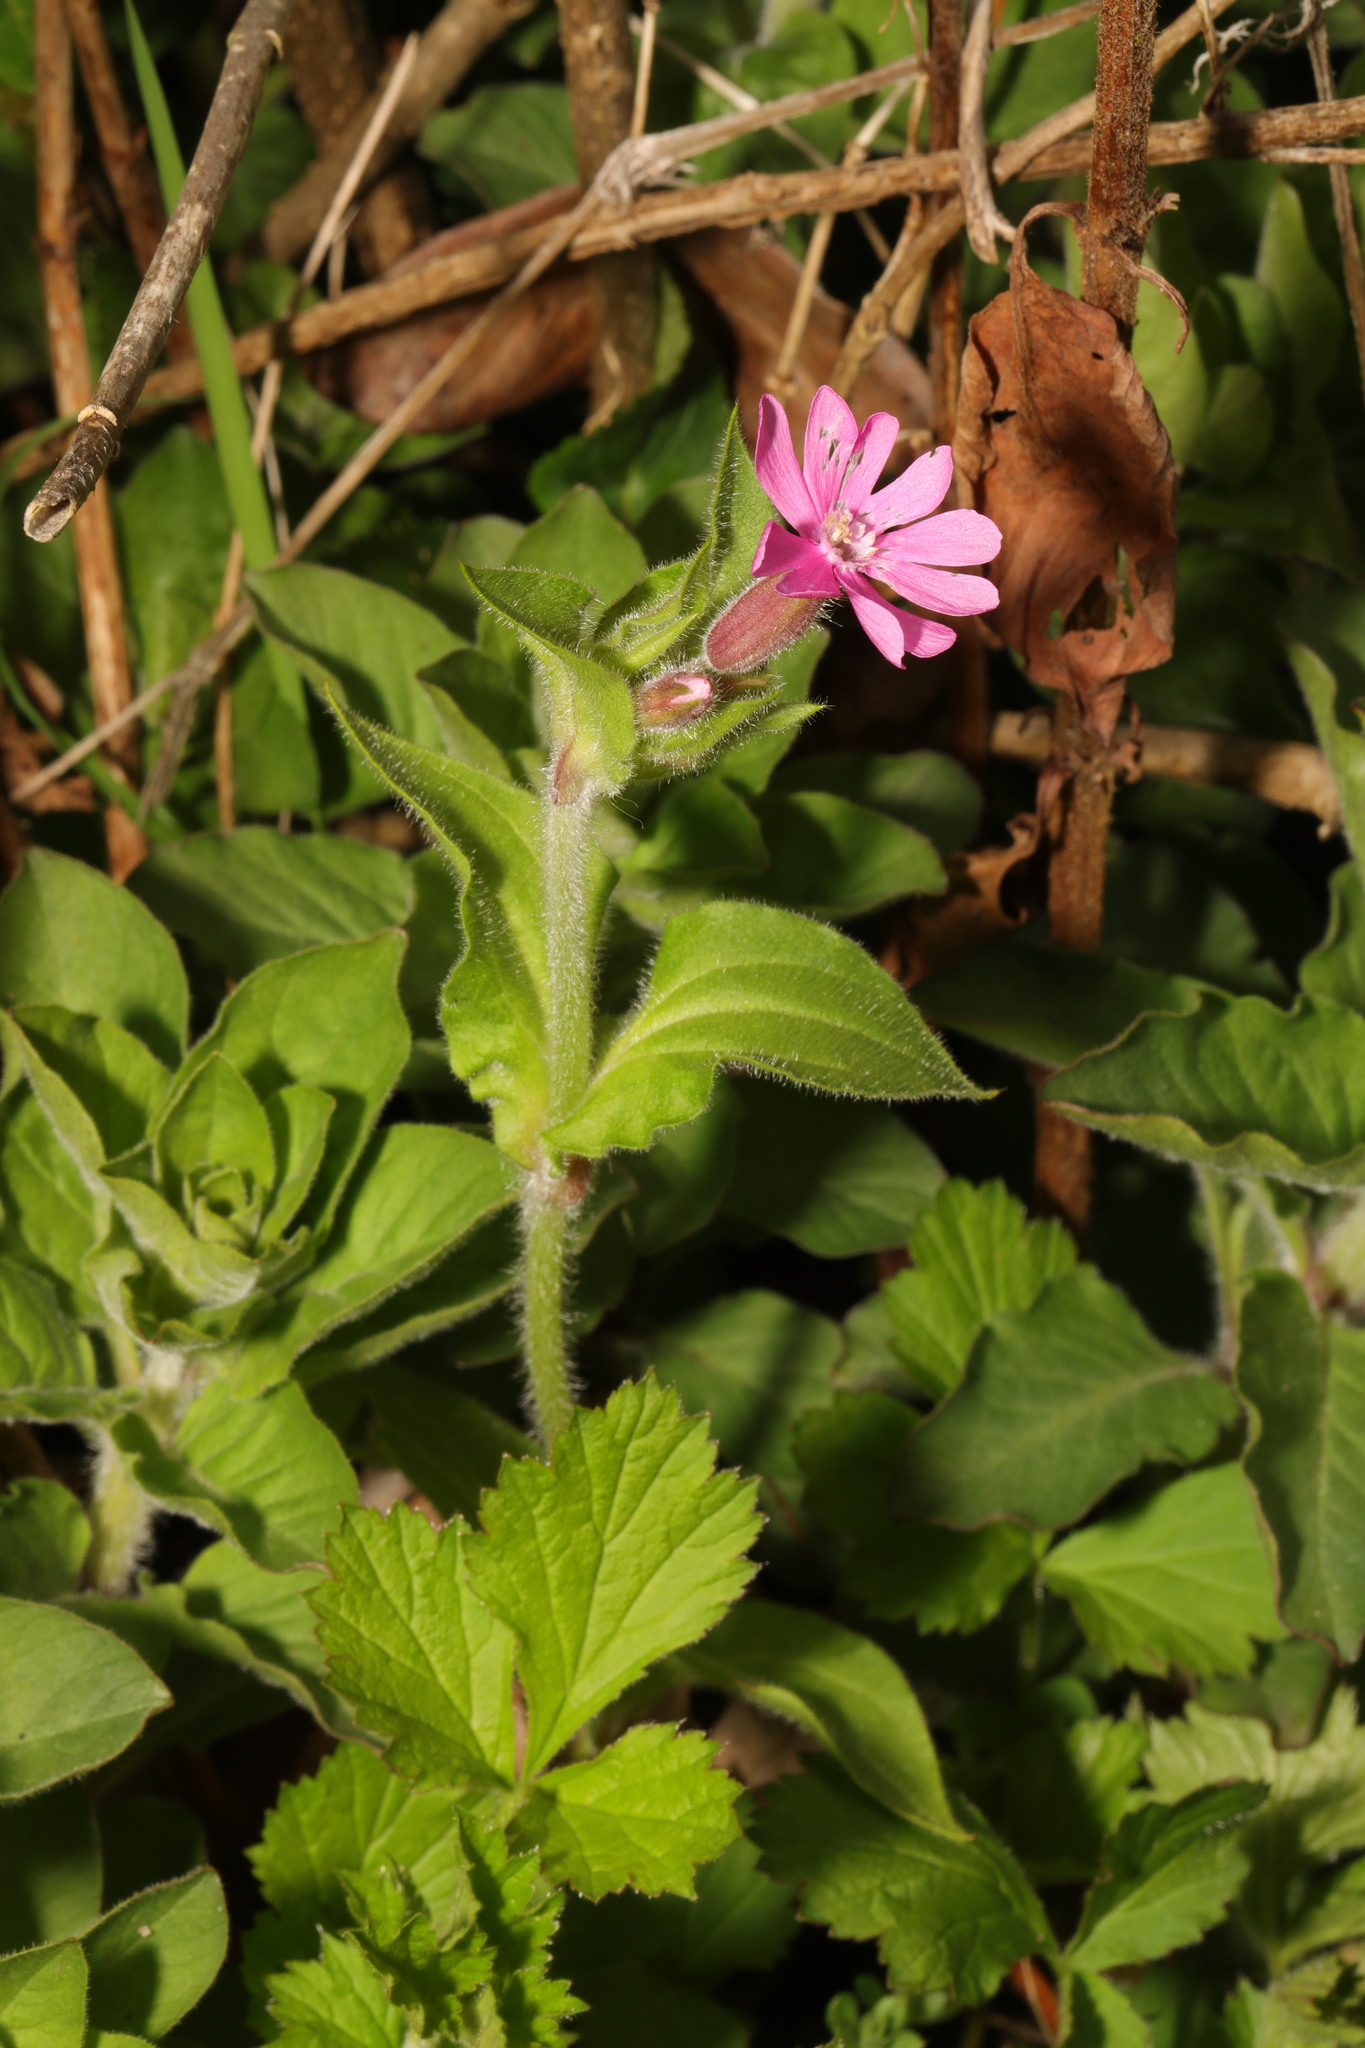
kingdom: Plantae
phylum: Tracheophyta
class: Magnoliopsida
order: Caryophyllales
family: Caryophyllaceae
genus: Silene
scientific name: Silene dioica
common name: Red campion
